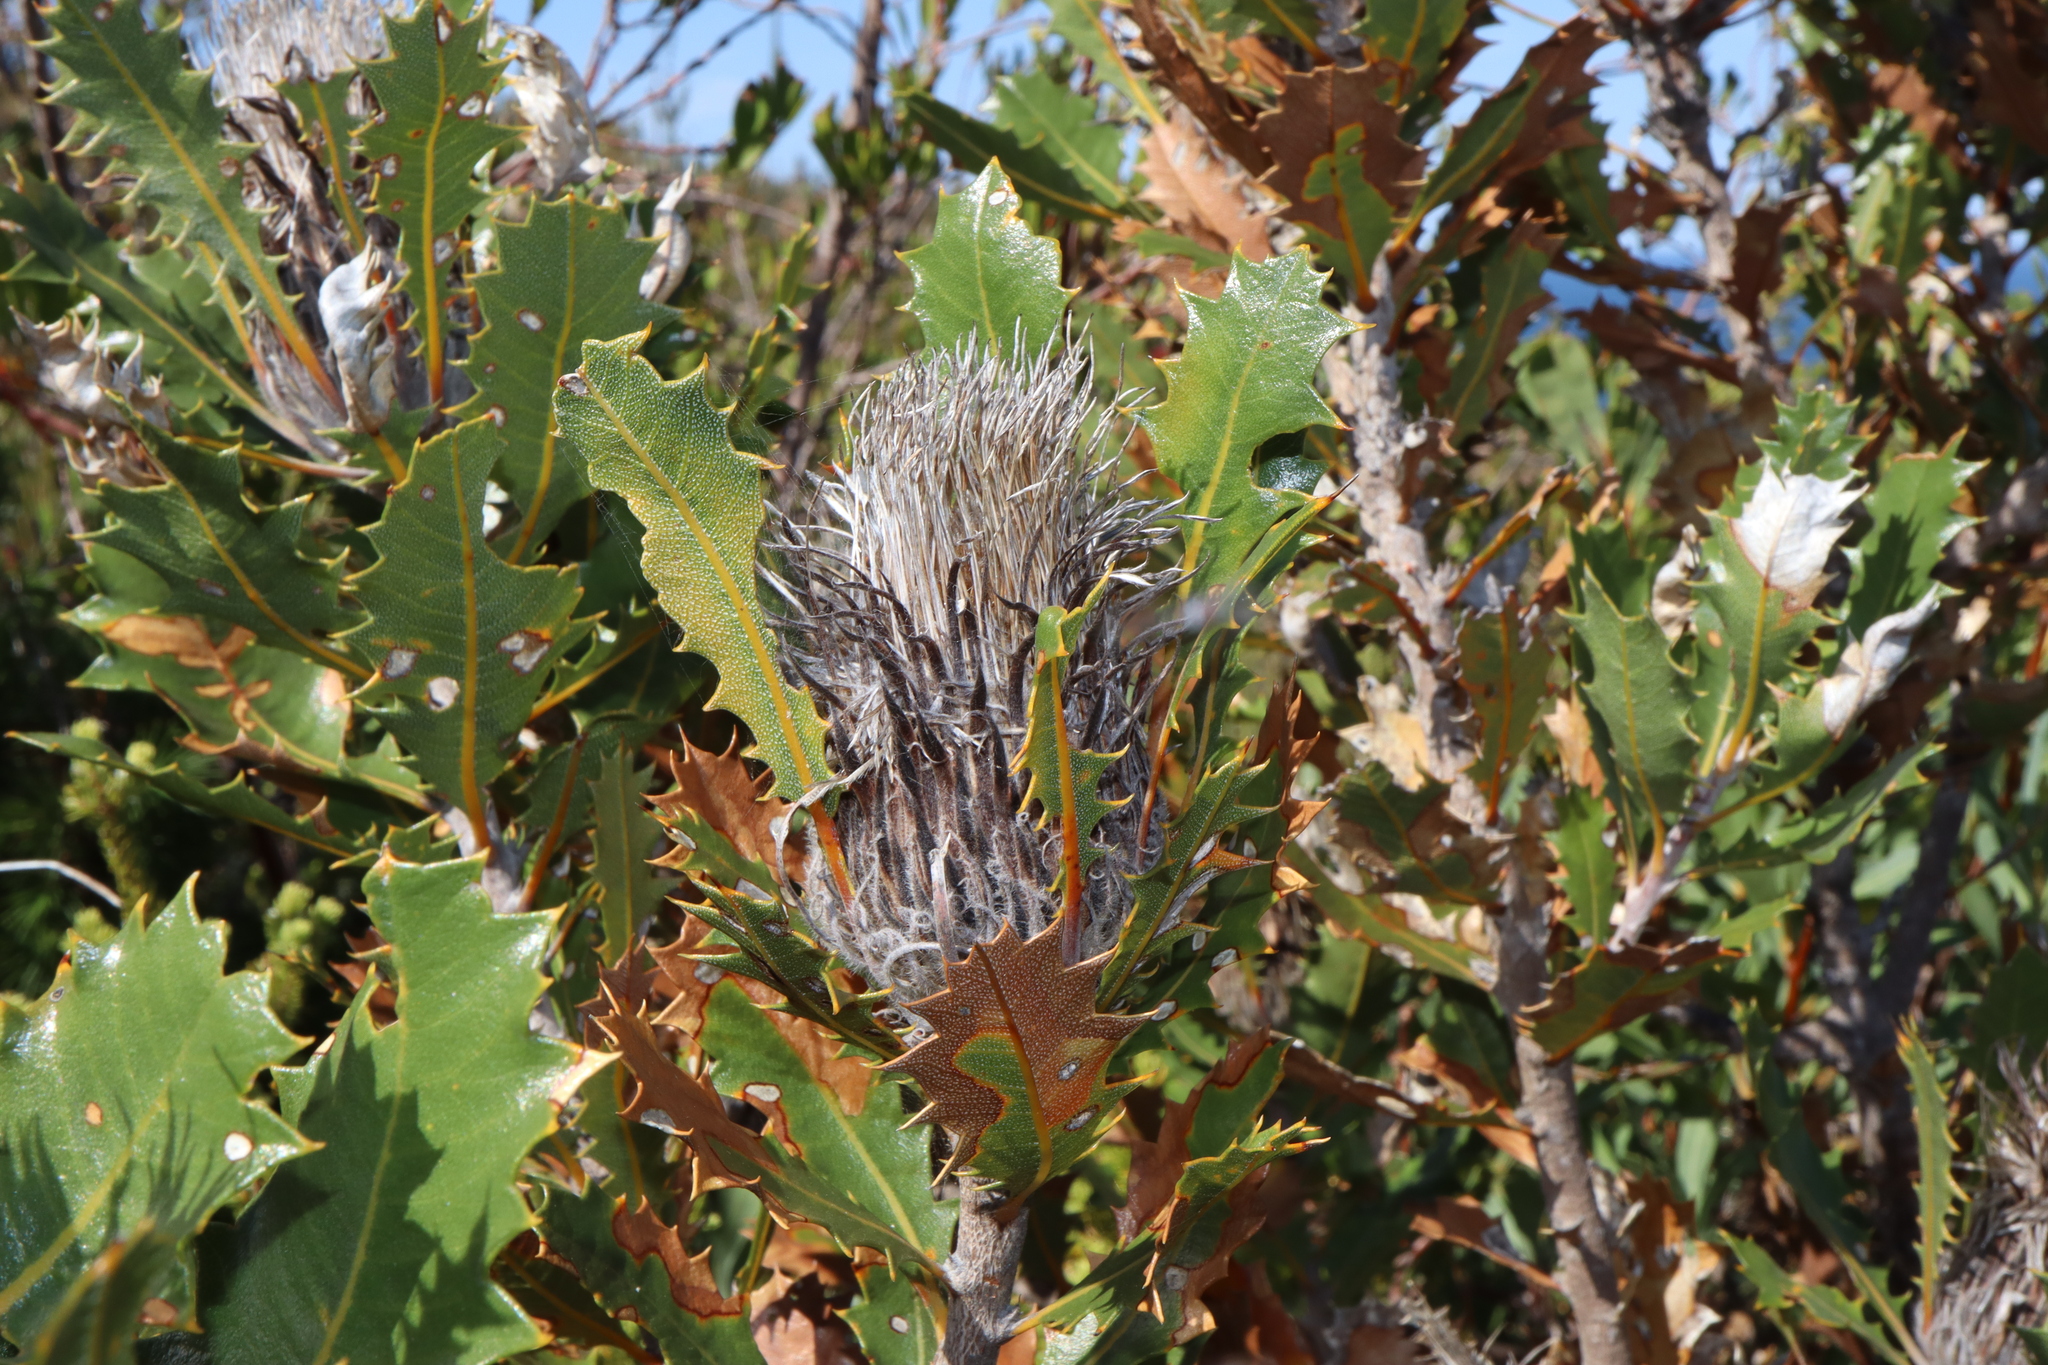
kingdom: Plantae
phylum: Tracheophyta
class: Magnoliopsida
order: Proteales
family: Proteaceae
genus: Banksia
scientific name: Banksia heliantha
